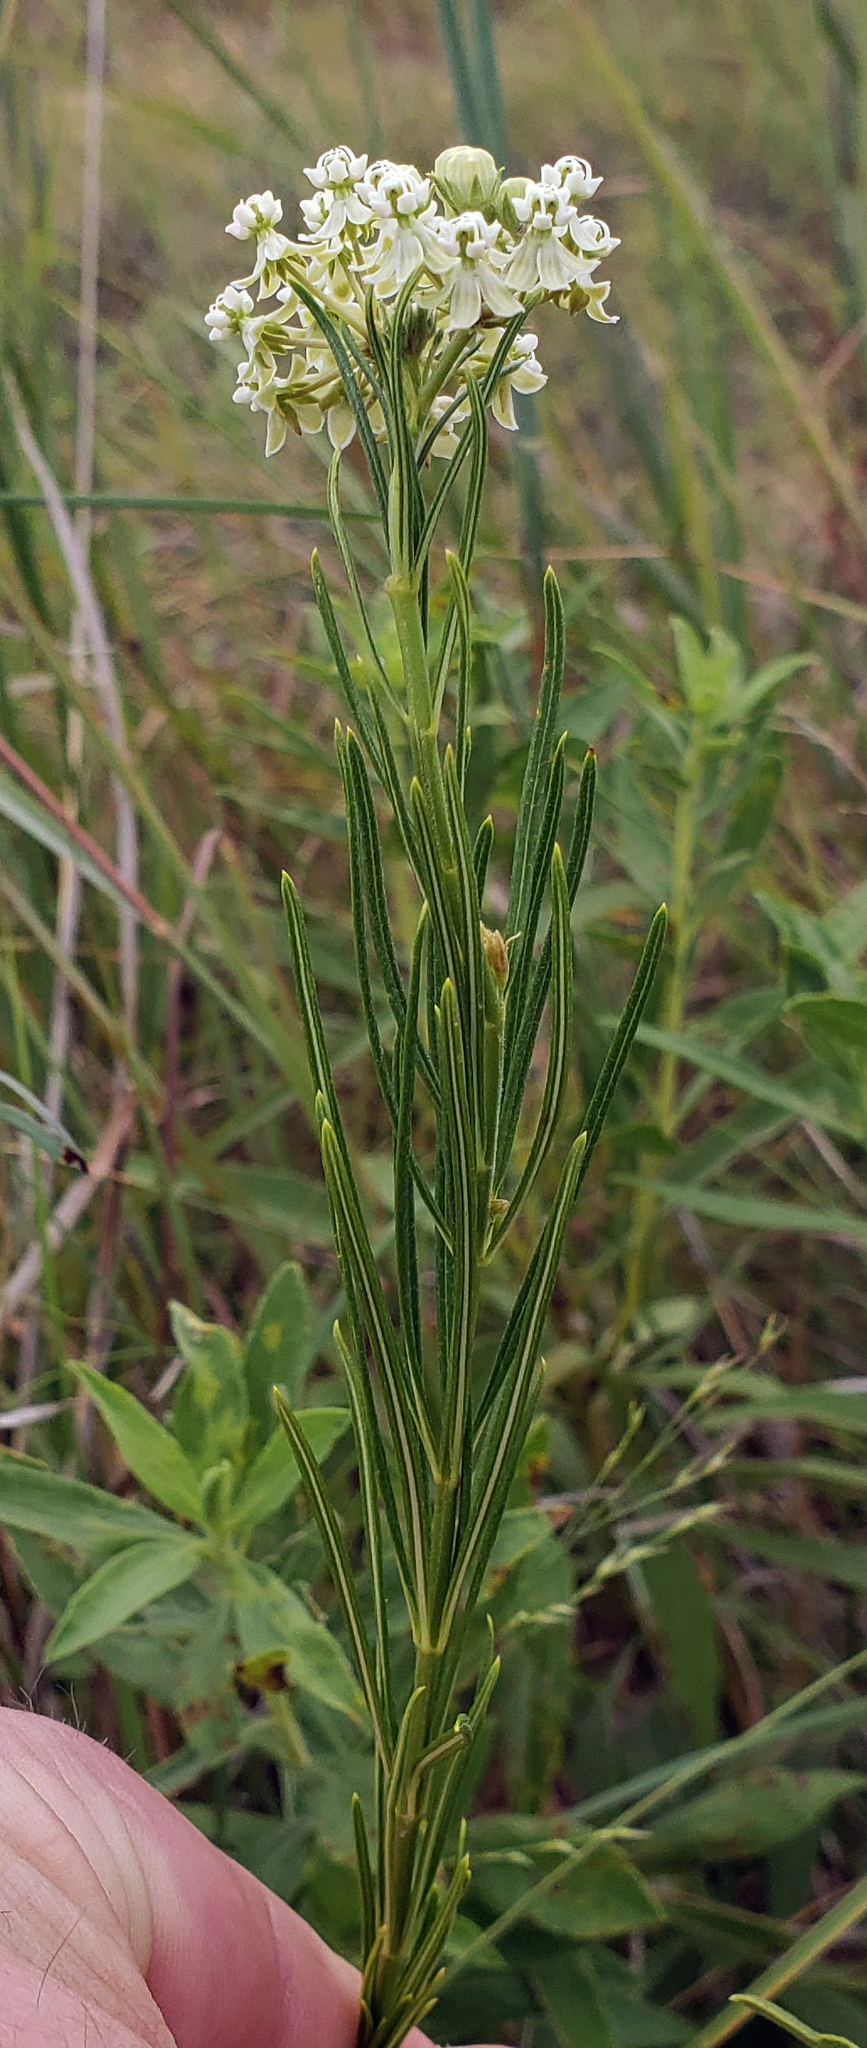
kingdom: Plantae
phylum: Tracheophyta
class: Magnoliopsida
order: Gentianales
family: Apocynaceae
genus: Asclepias
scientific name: Asclepias verticillata
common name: Eastern whorled milkweed
